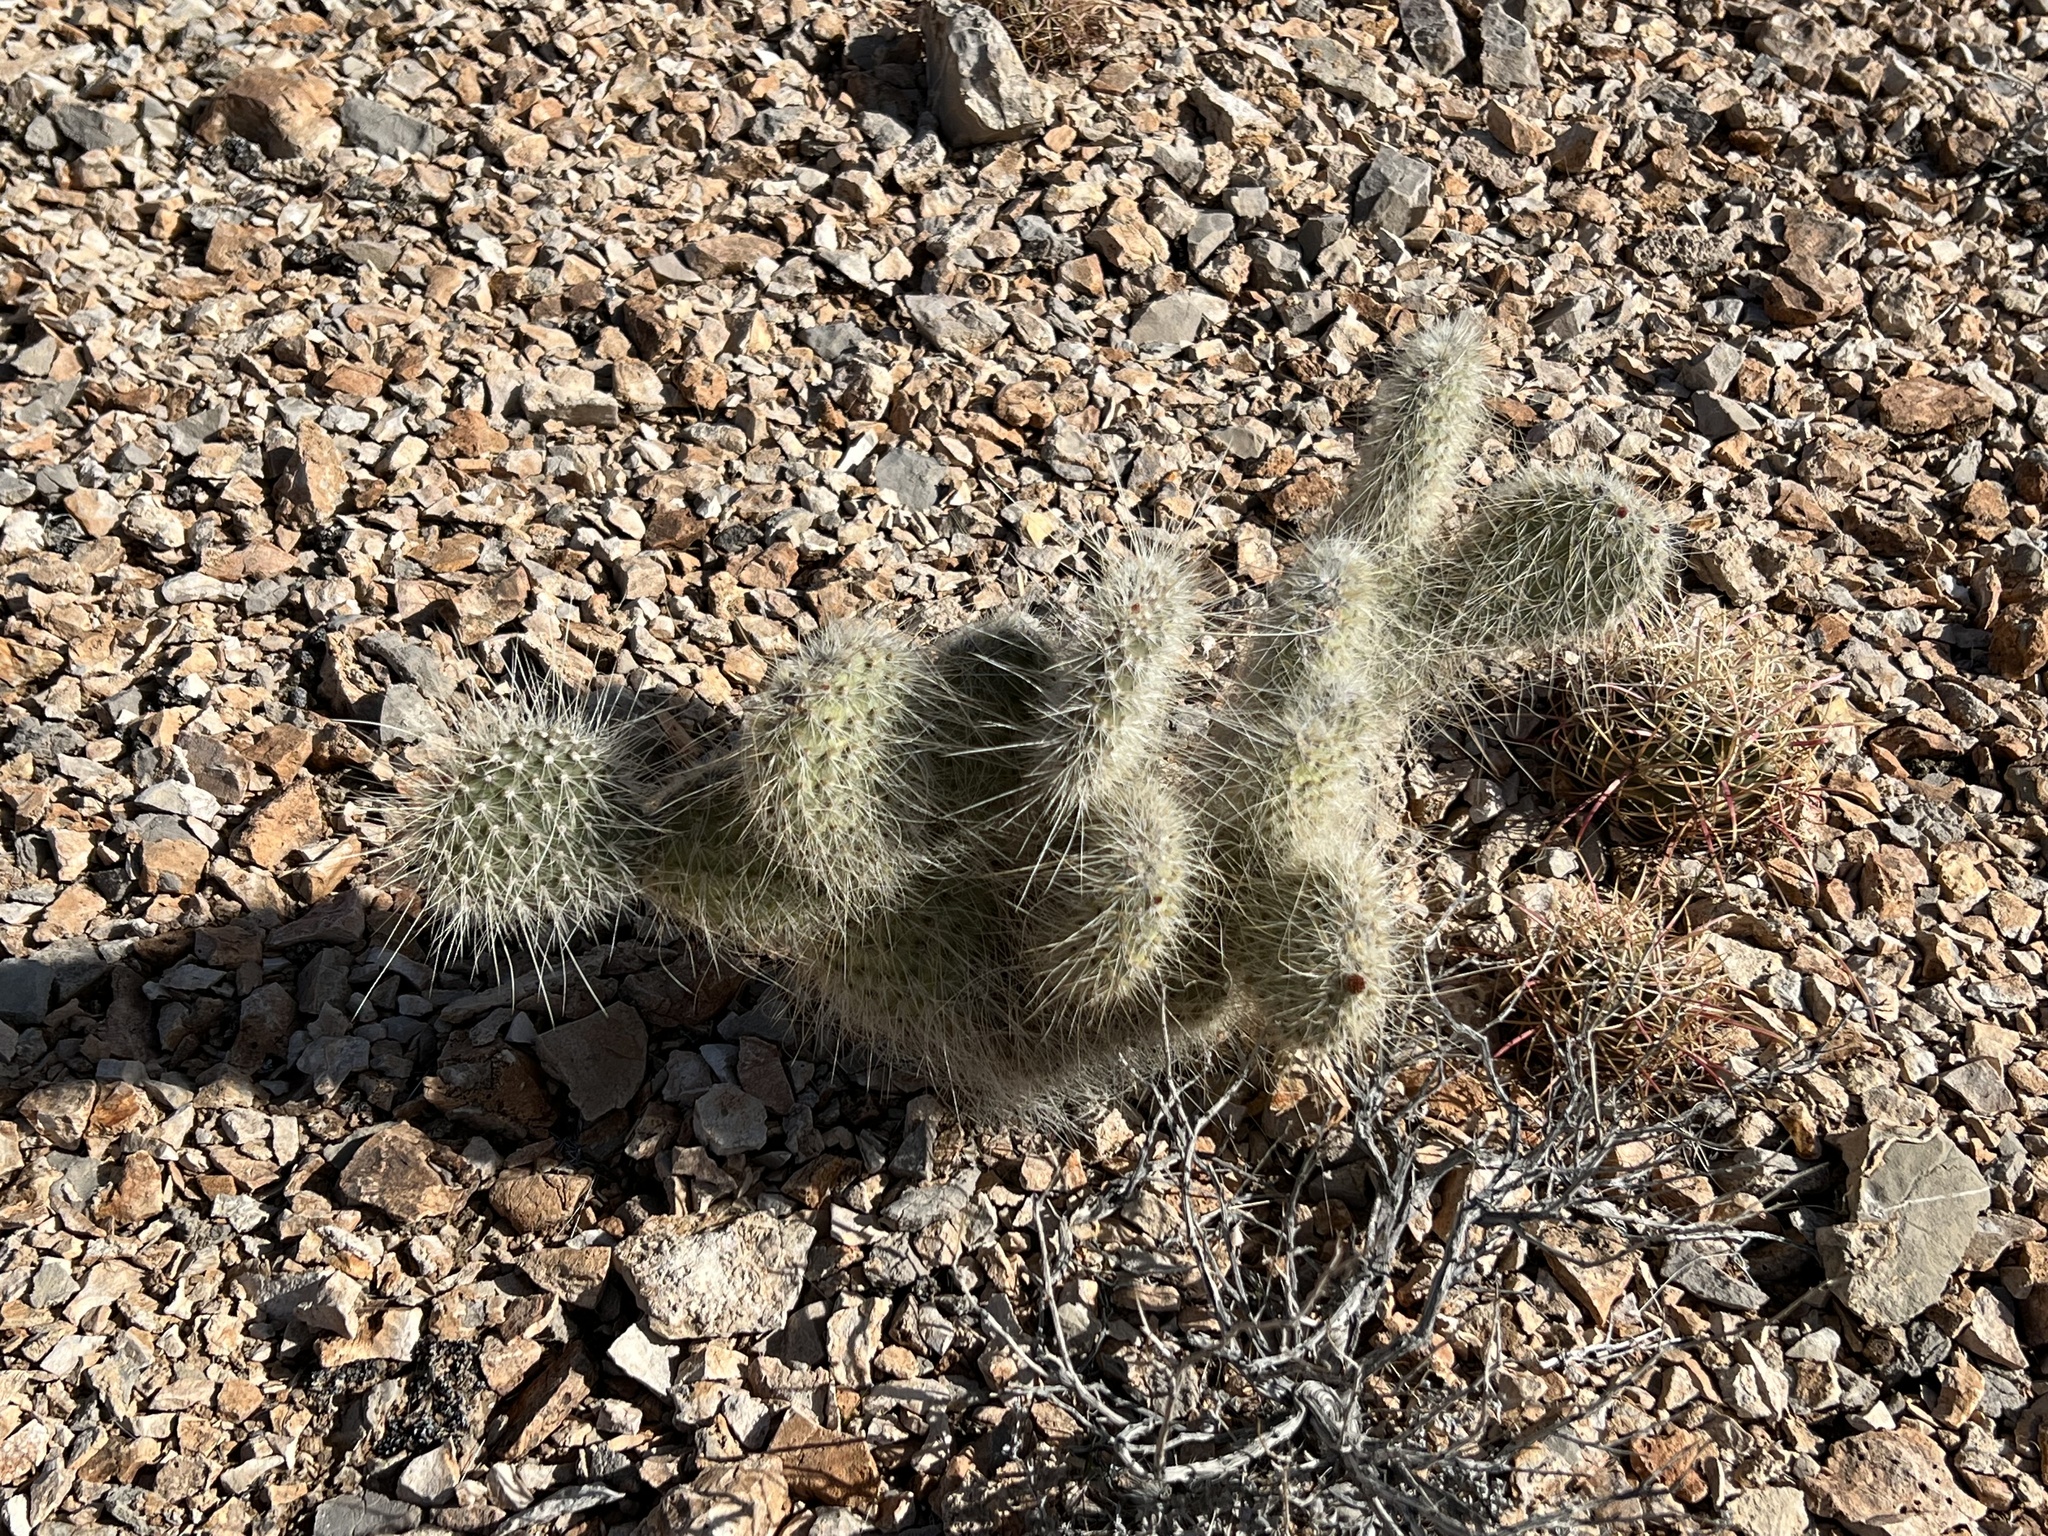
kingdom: Plantae
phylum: Tracheophyta
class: Magnoliopsida
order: Caryophyllales
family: Cactaceae
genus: Opuntia
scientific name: Opuntia polyacantha
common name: Plains prickly-pear
